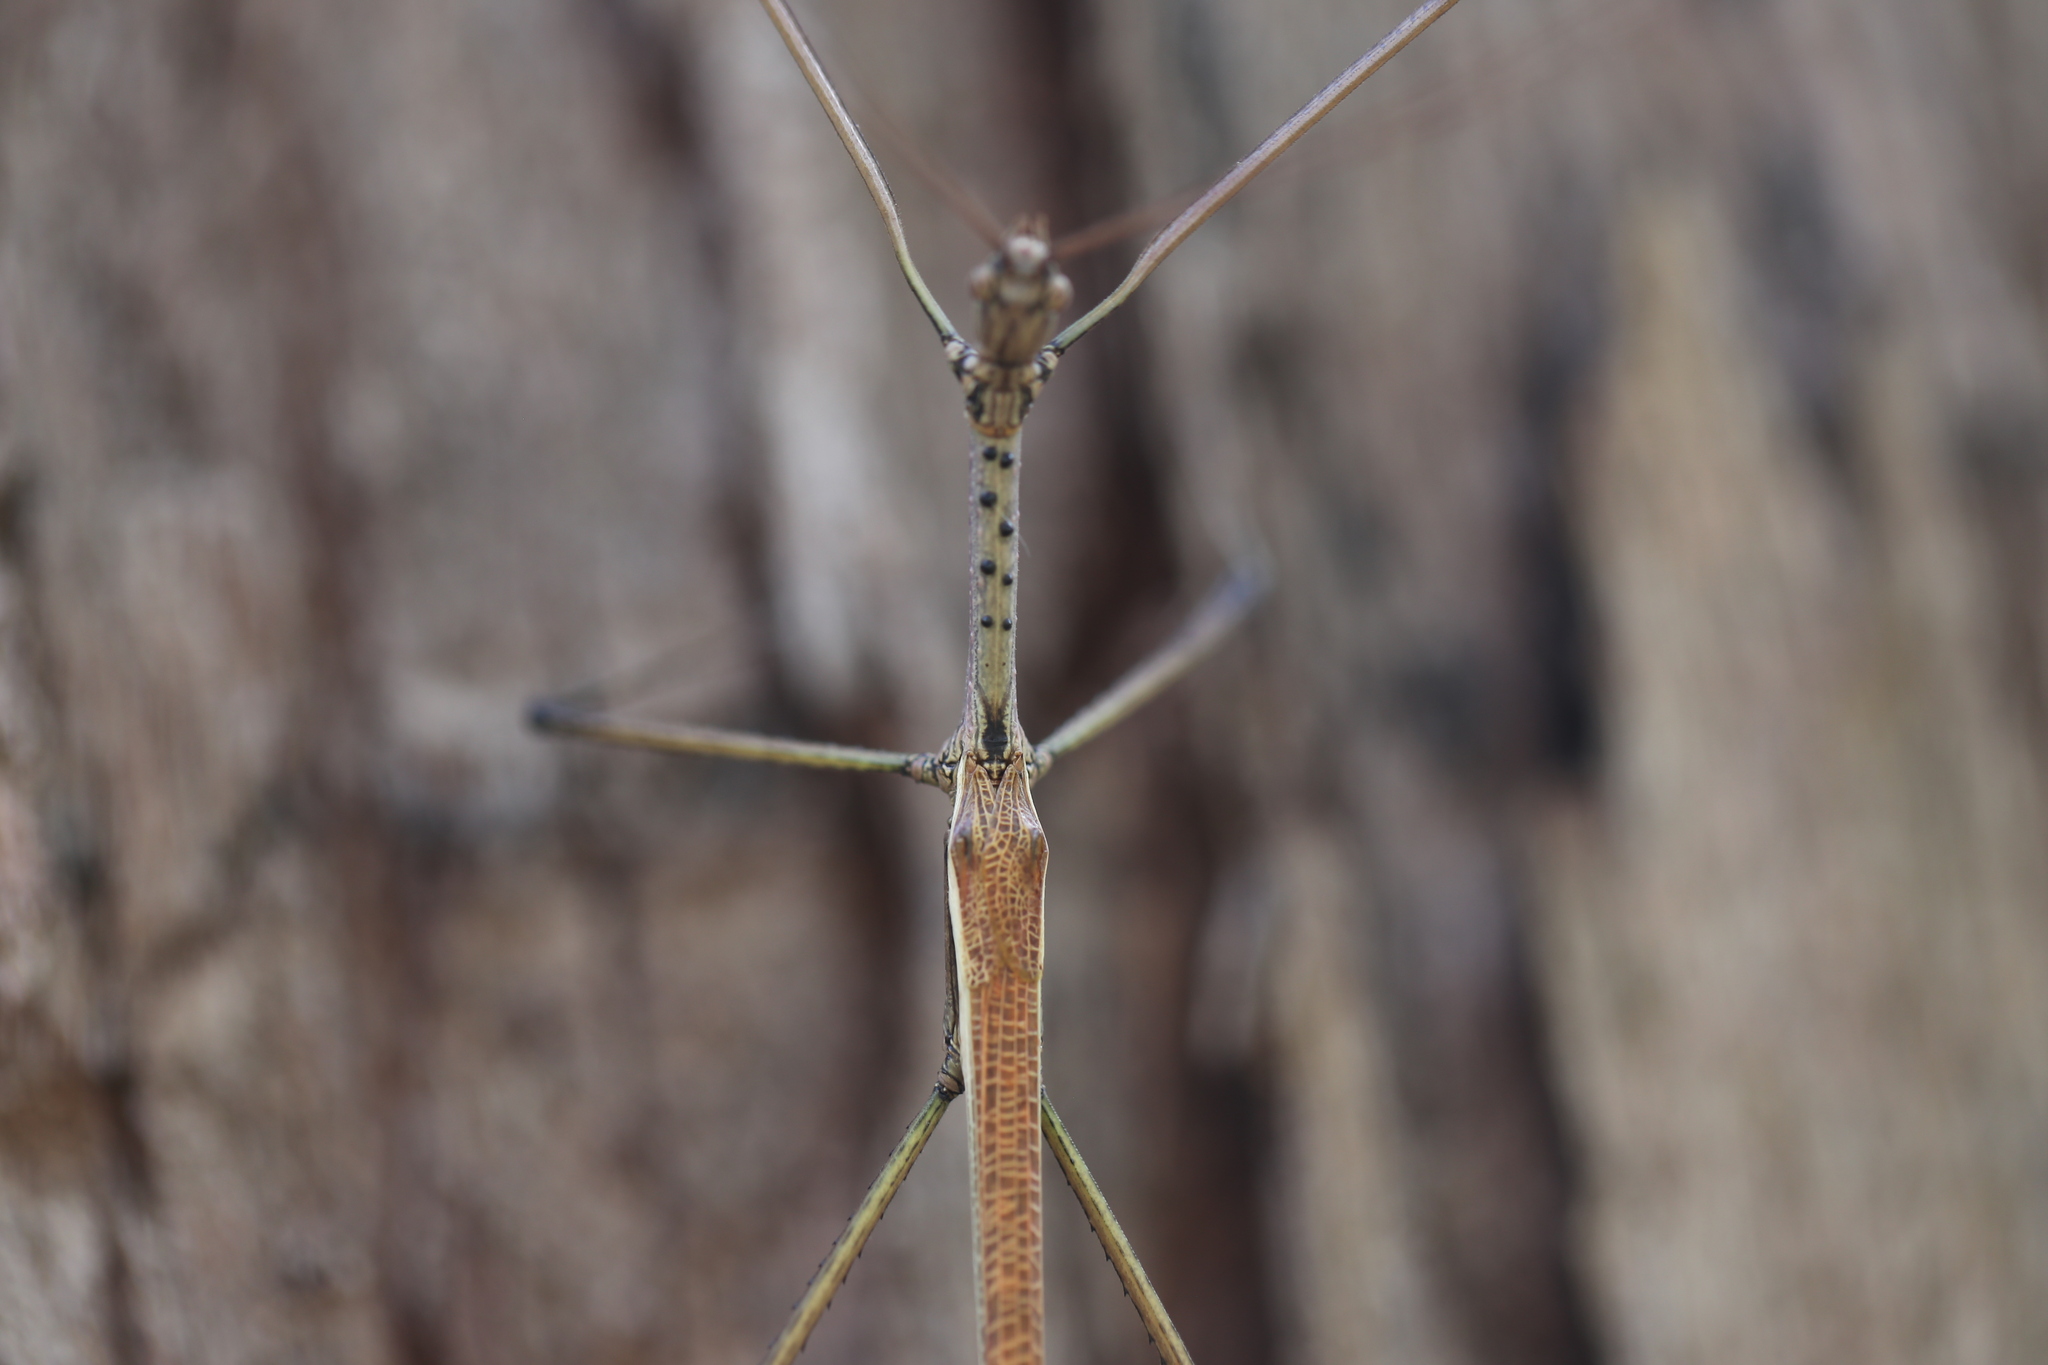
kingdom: Animalia
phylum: Arthropoda
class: Insecta
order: Phasmida
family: Phasmatidae
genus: Anchiale
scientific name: Anchiale austrotessulata
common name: Tessellated stick-insect
